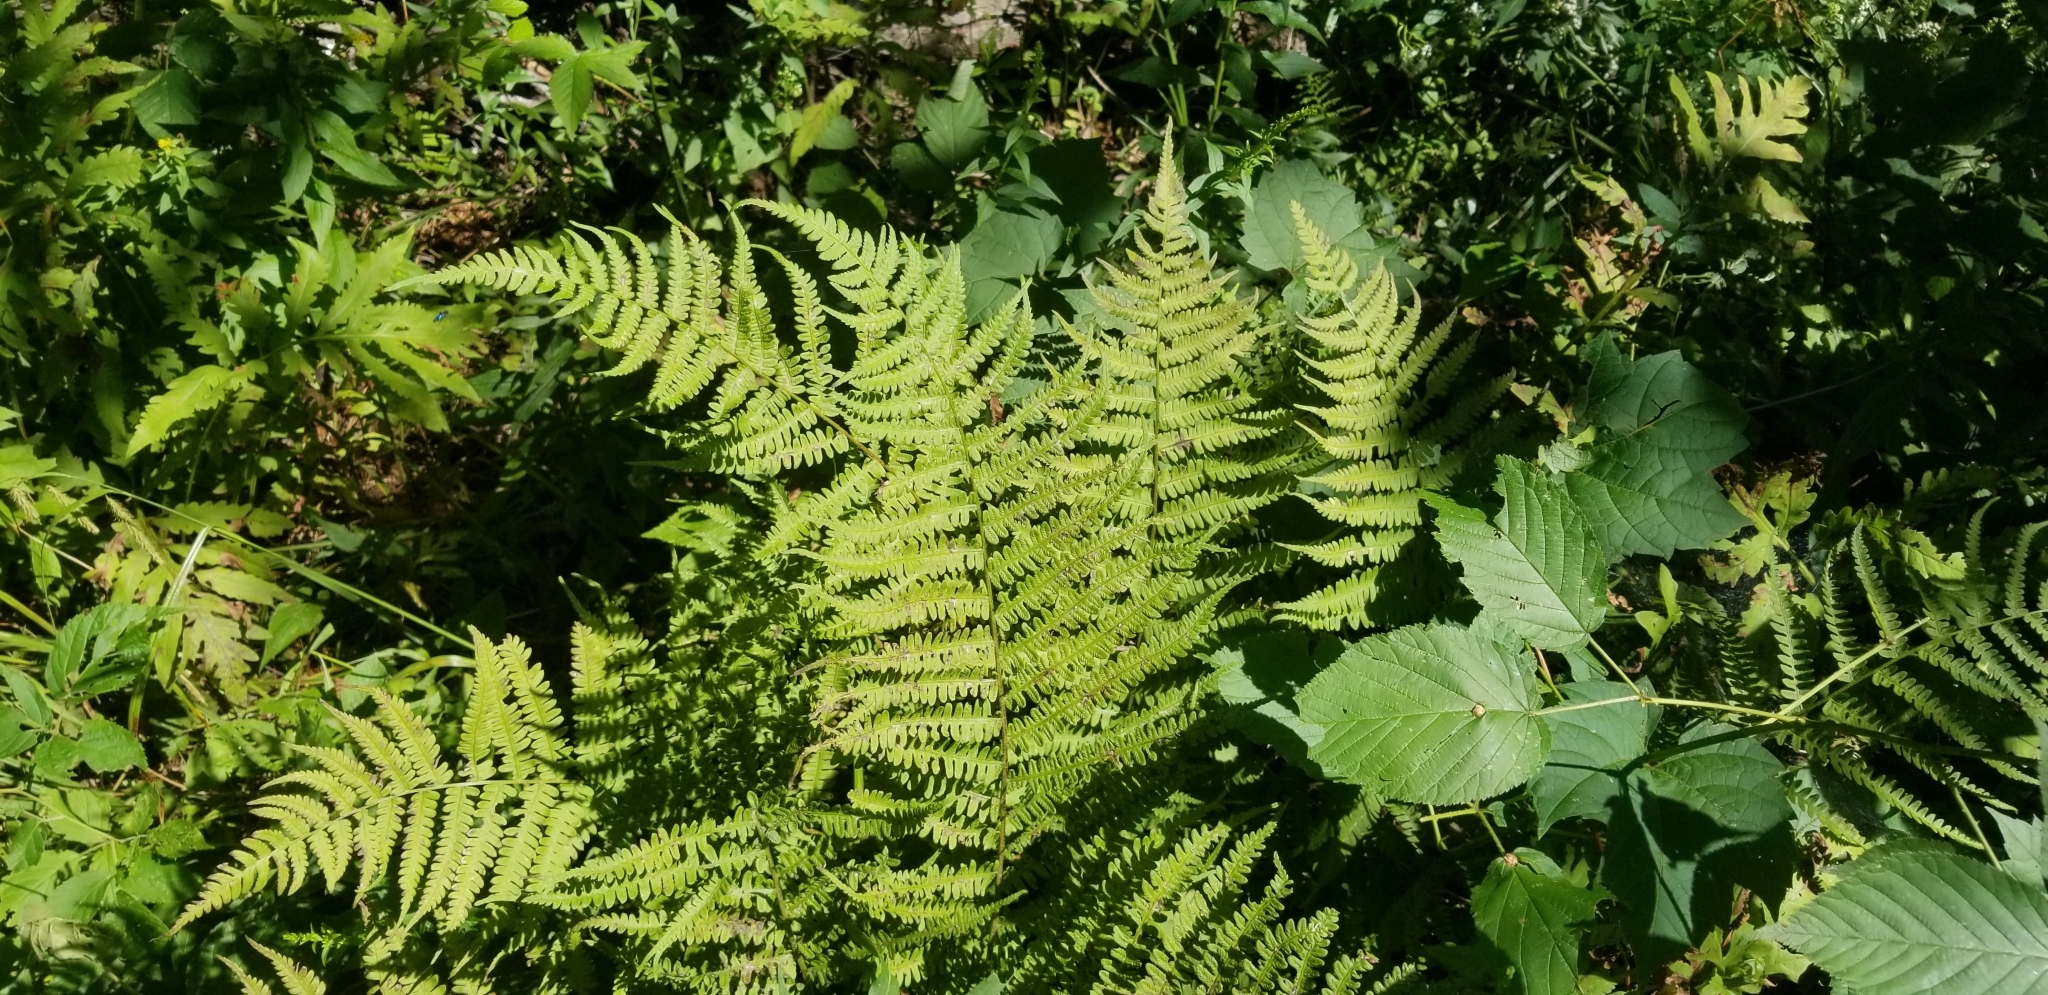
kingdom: Plantae
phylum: Tracheophyta
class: Polypodiopsida
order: Polypodiales
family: Athyriaceae
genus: Deparia
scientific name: Deparia acrostichoides
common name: Silver false spleenwort
